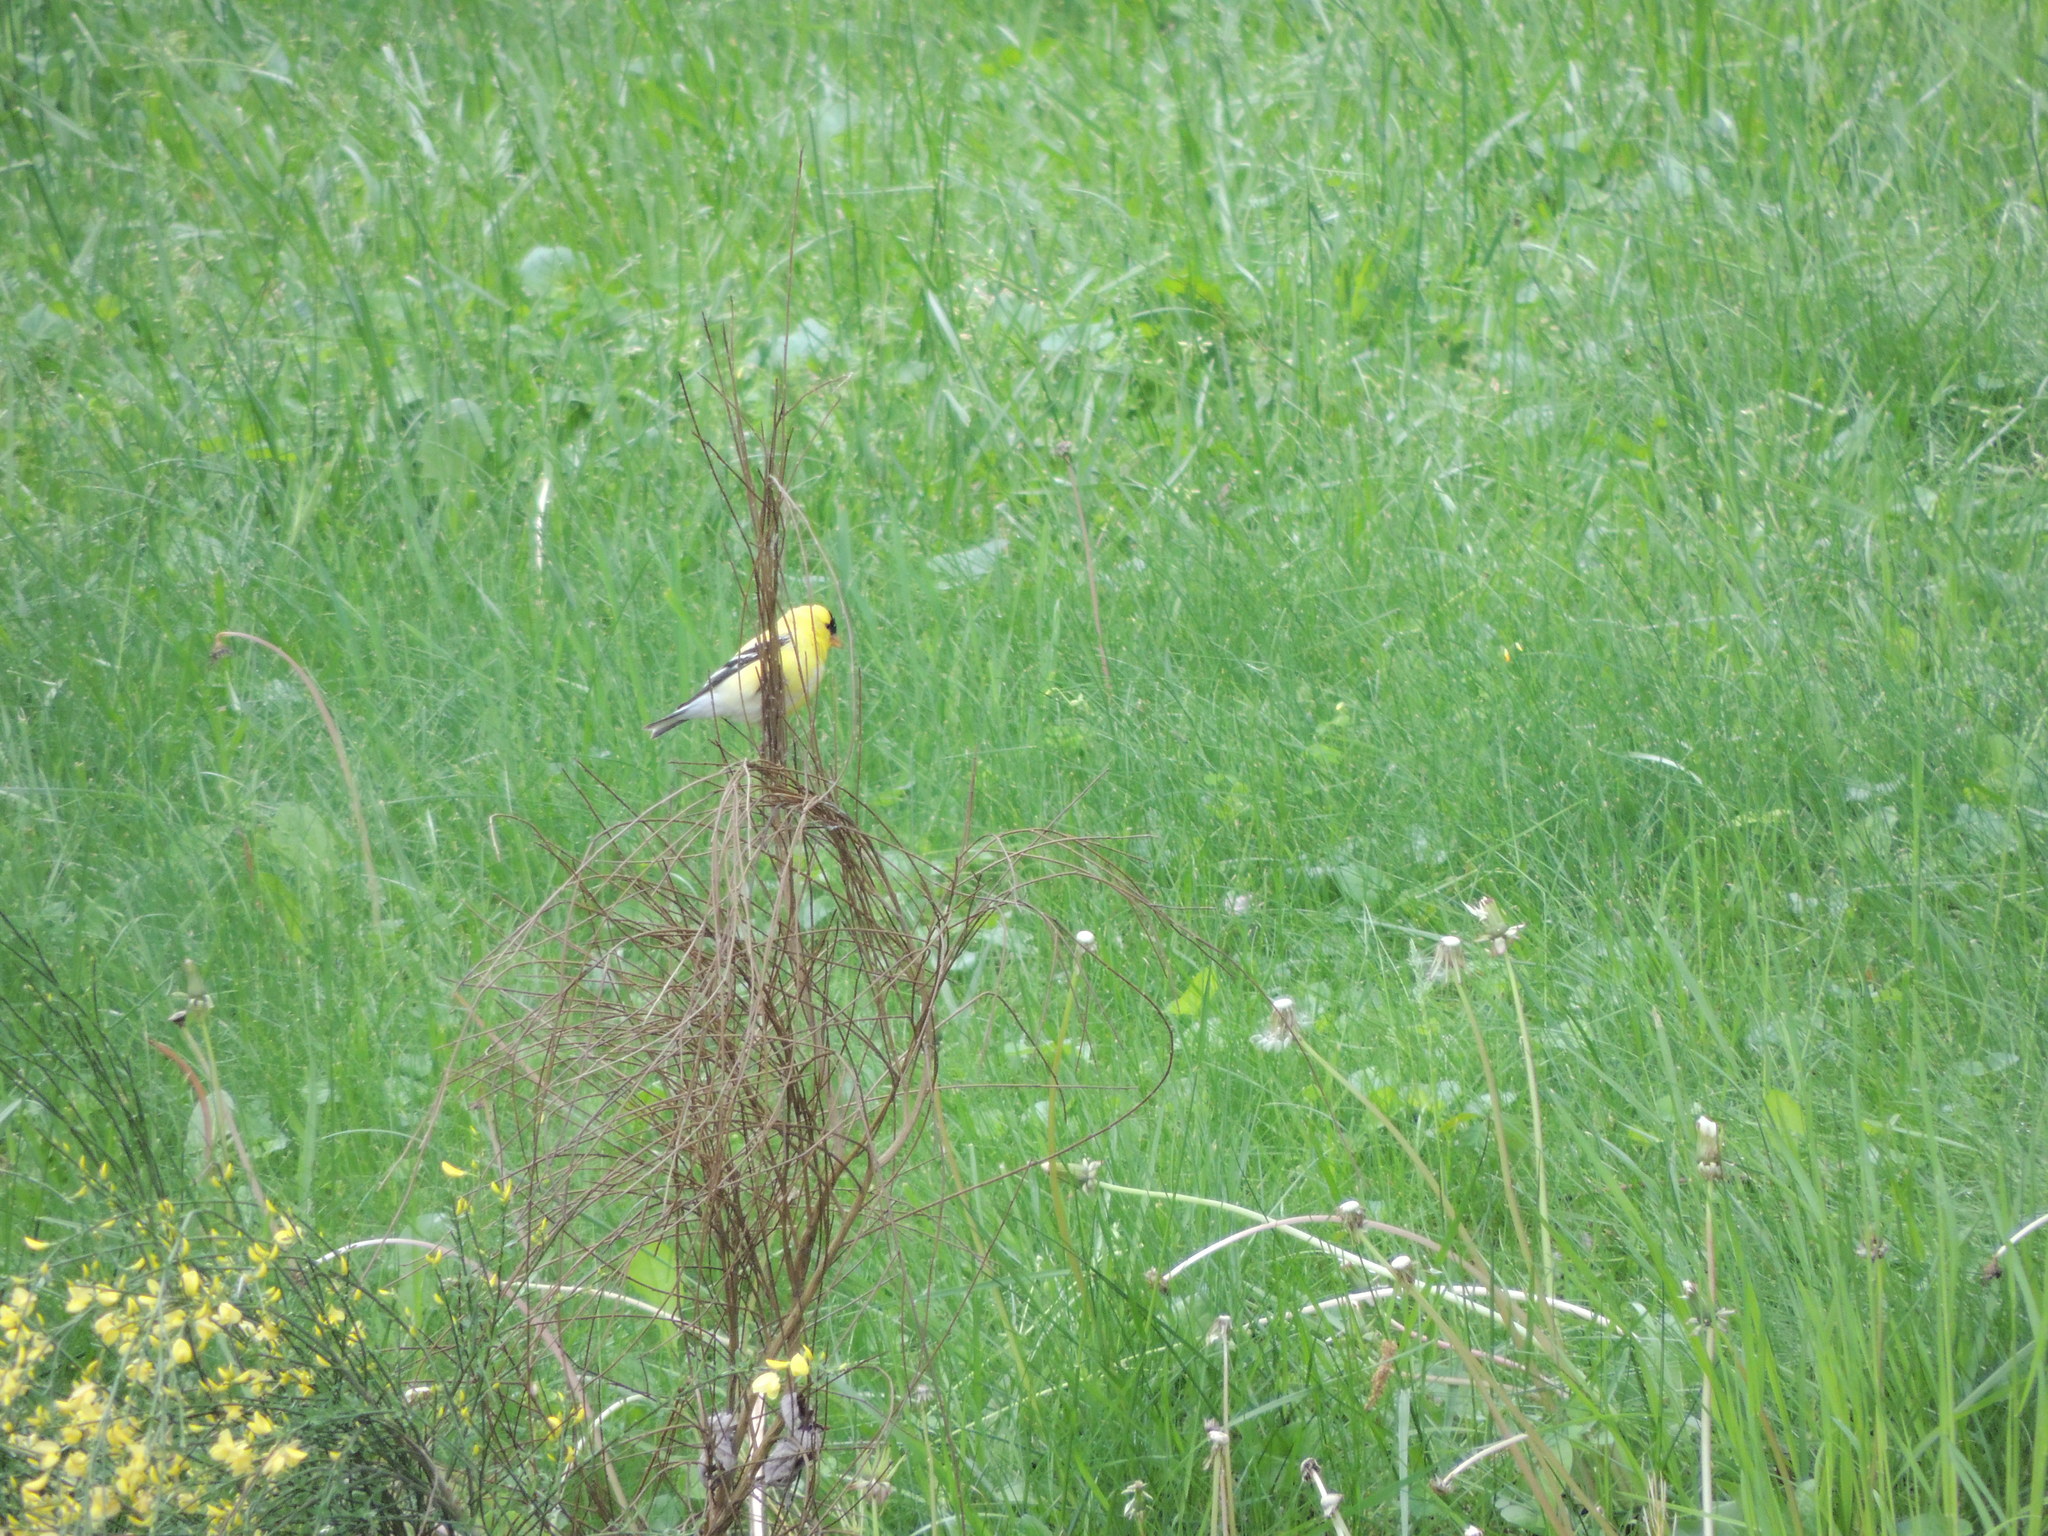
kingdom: Animalia
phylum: Chordata
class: Aves
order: Passeriformes
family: Fringillidae
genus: Spinus
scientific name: Spinus tristis
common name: American goldfinch
